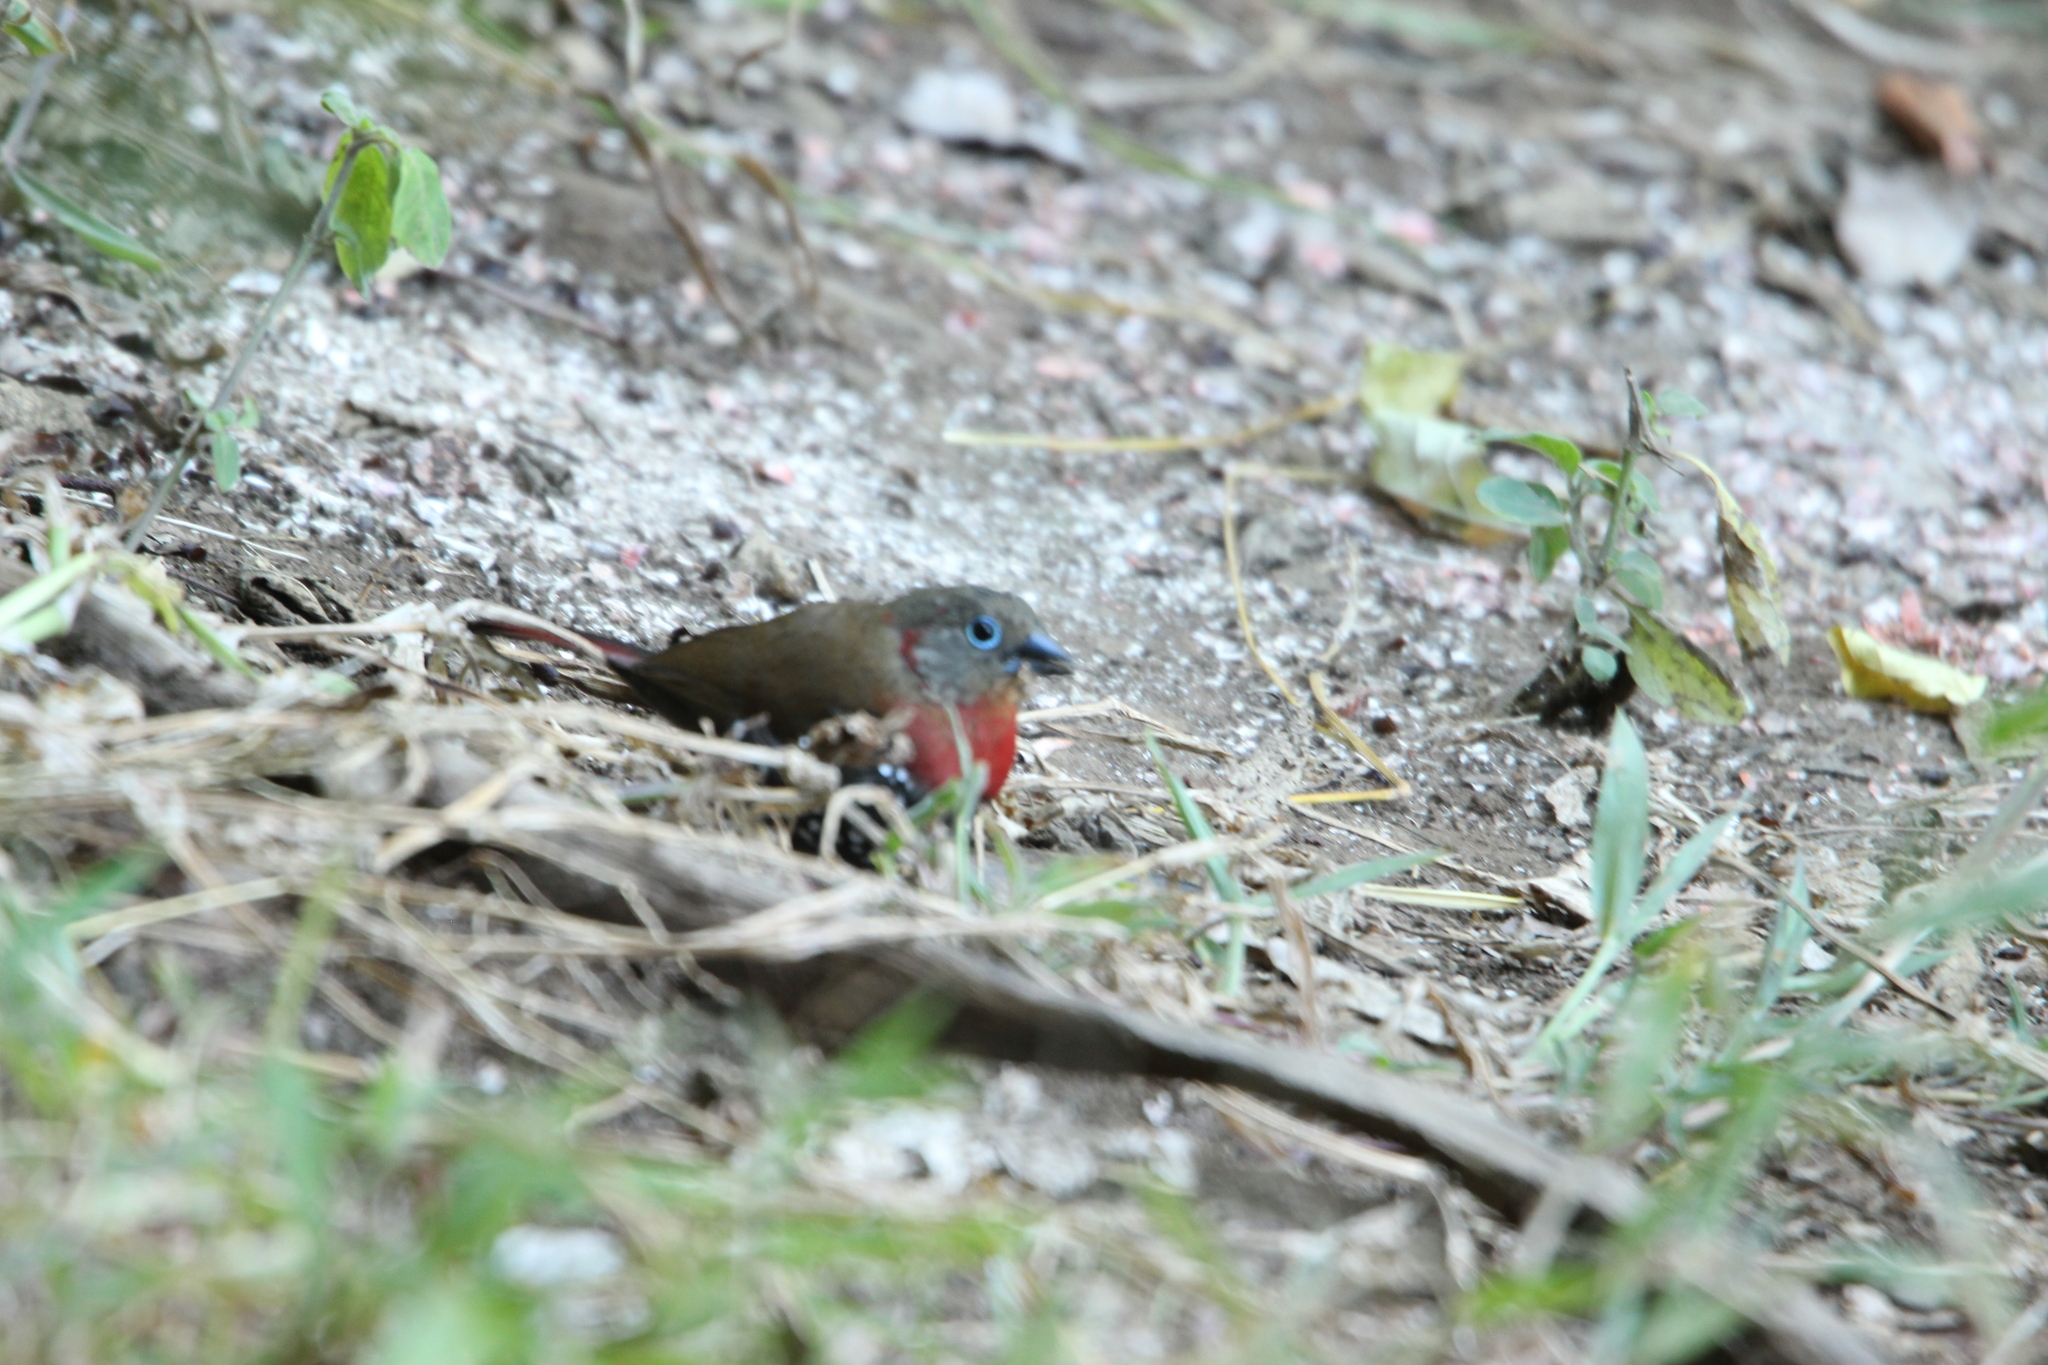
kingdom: Animalia
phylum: Chordata
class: Aves
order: Passeriformes
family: Estrildidae
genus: Hypargos
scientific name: Hypargos niveoguttatus
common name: Red-throated twinspot
